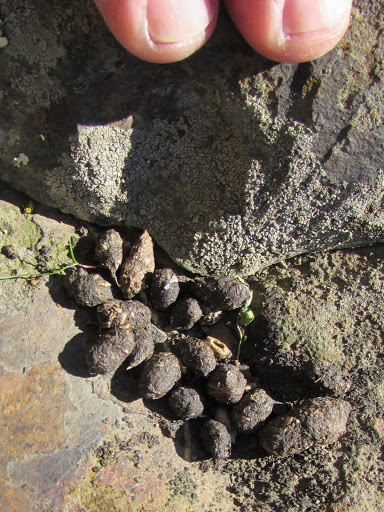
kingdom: Animalia
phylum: Chordata
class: Mammalia
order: Rodentia
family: Sciuridae
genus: Otospermophilus
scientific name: Otospermophilus beecheyi
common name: California ground squirrel
